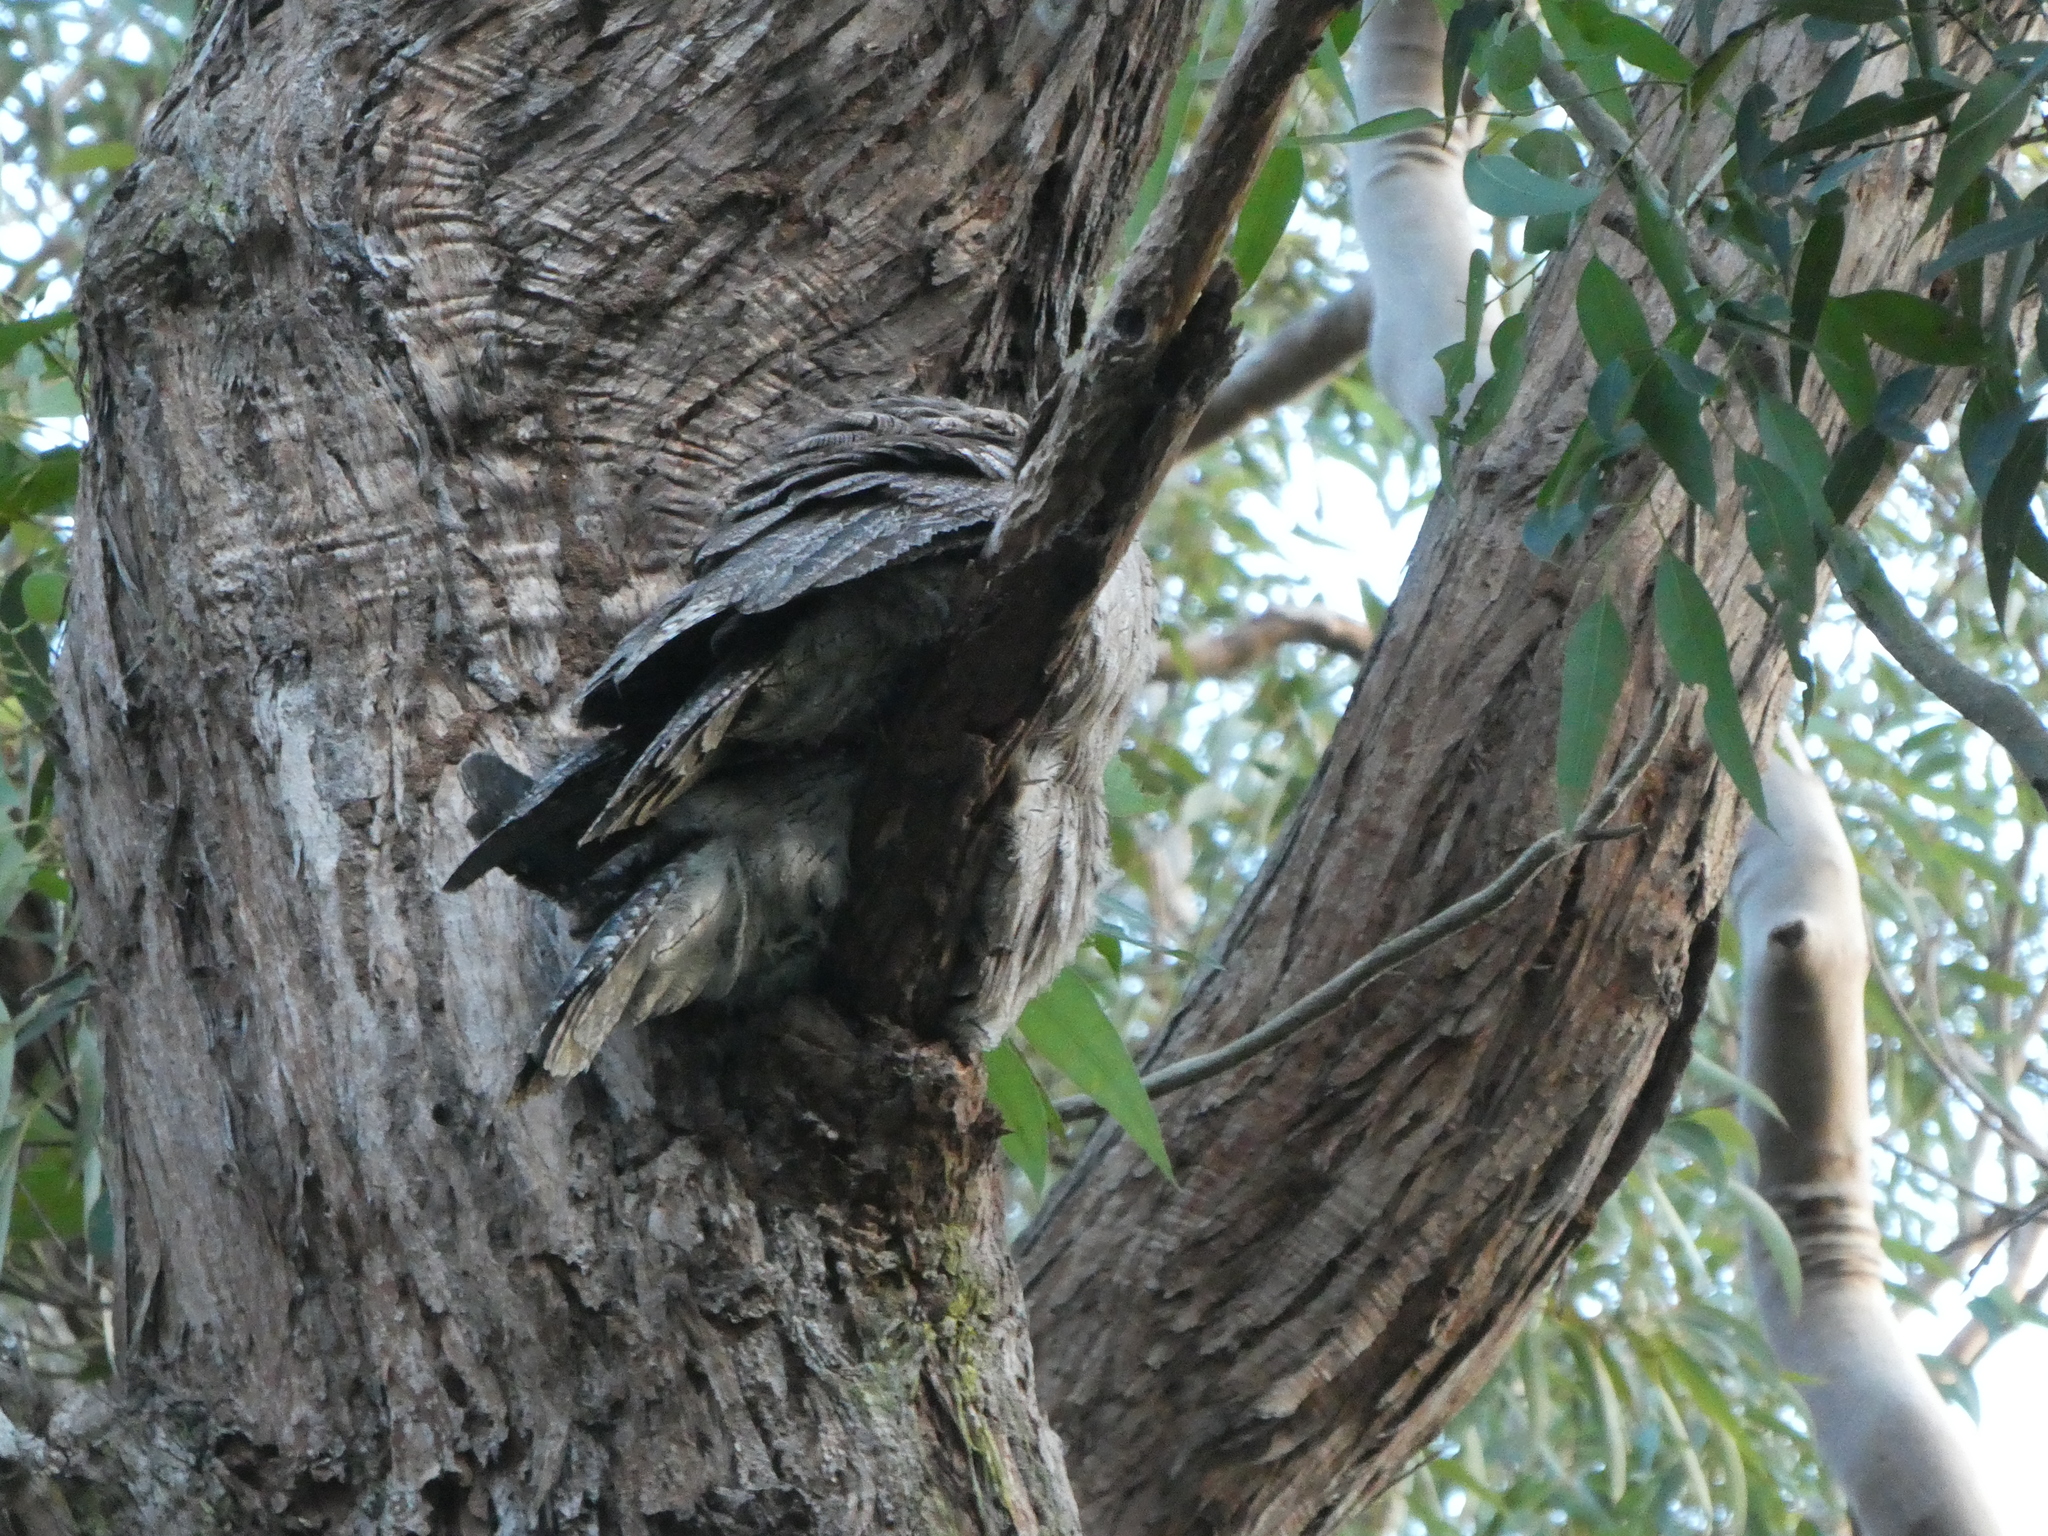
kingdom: Animalia
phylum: Chordata
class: Aves
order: Caprimulgiformes
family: Podargidae
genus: Podargus
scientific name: Podargus strigoides
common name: Tawny frogmouth
